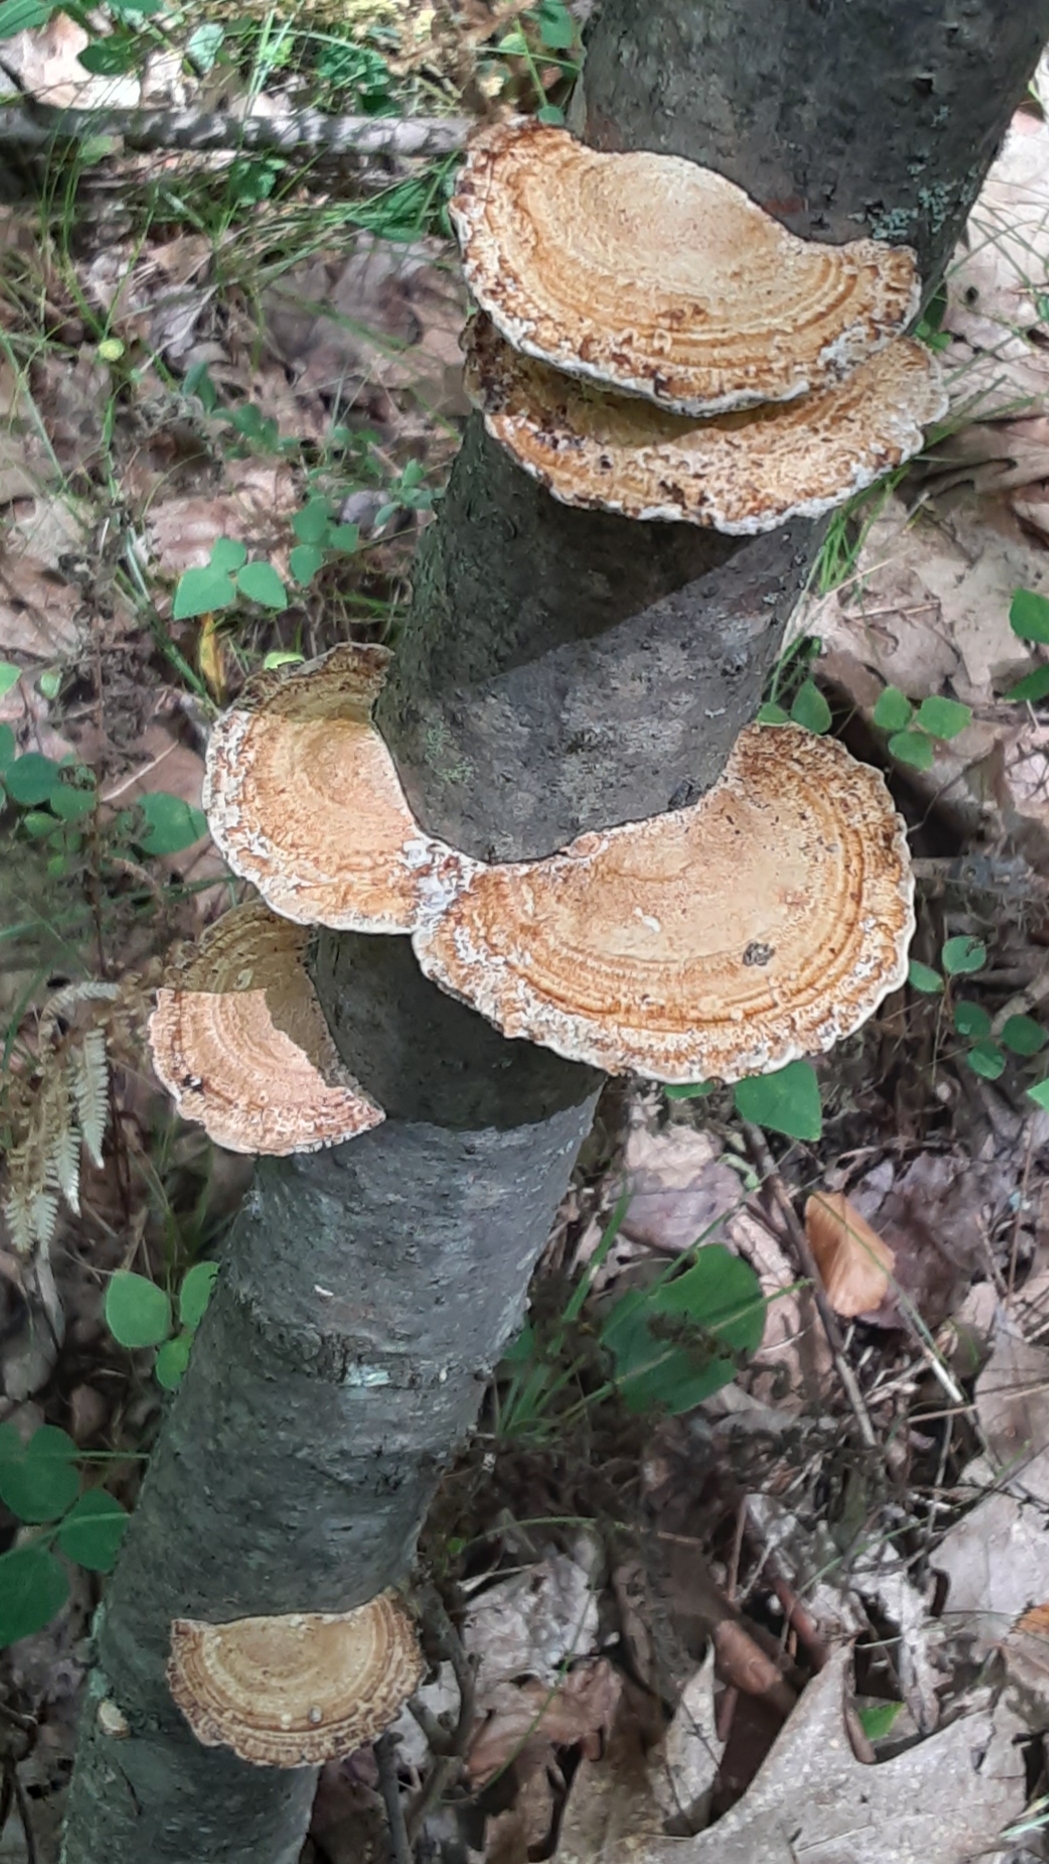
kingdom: Fungi
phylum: Basidiomycota
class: Agaricomycetes
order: Polyporales
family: Polyporaceae
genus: Daedaleopsis
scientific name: Daedaleopsis confragosa
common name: Blushing bracket
